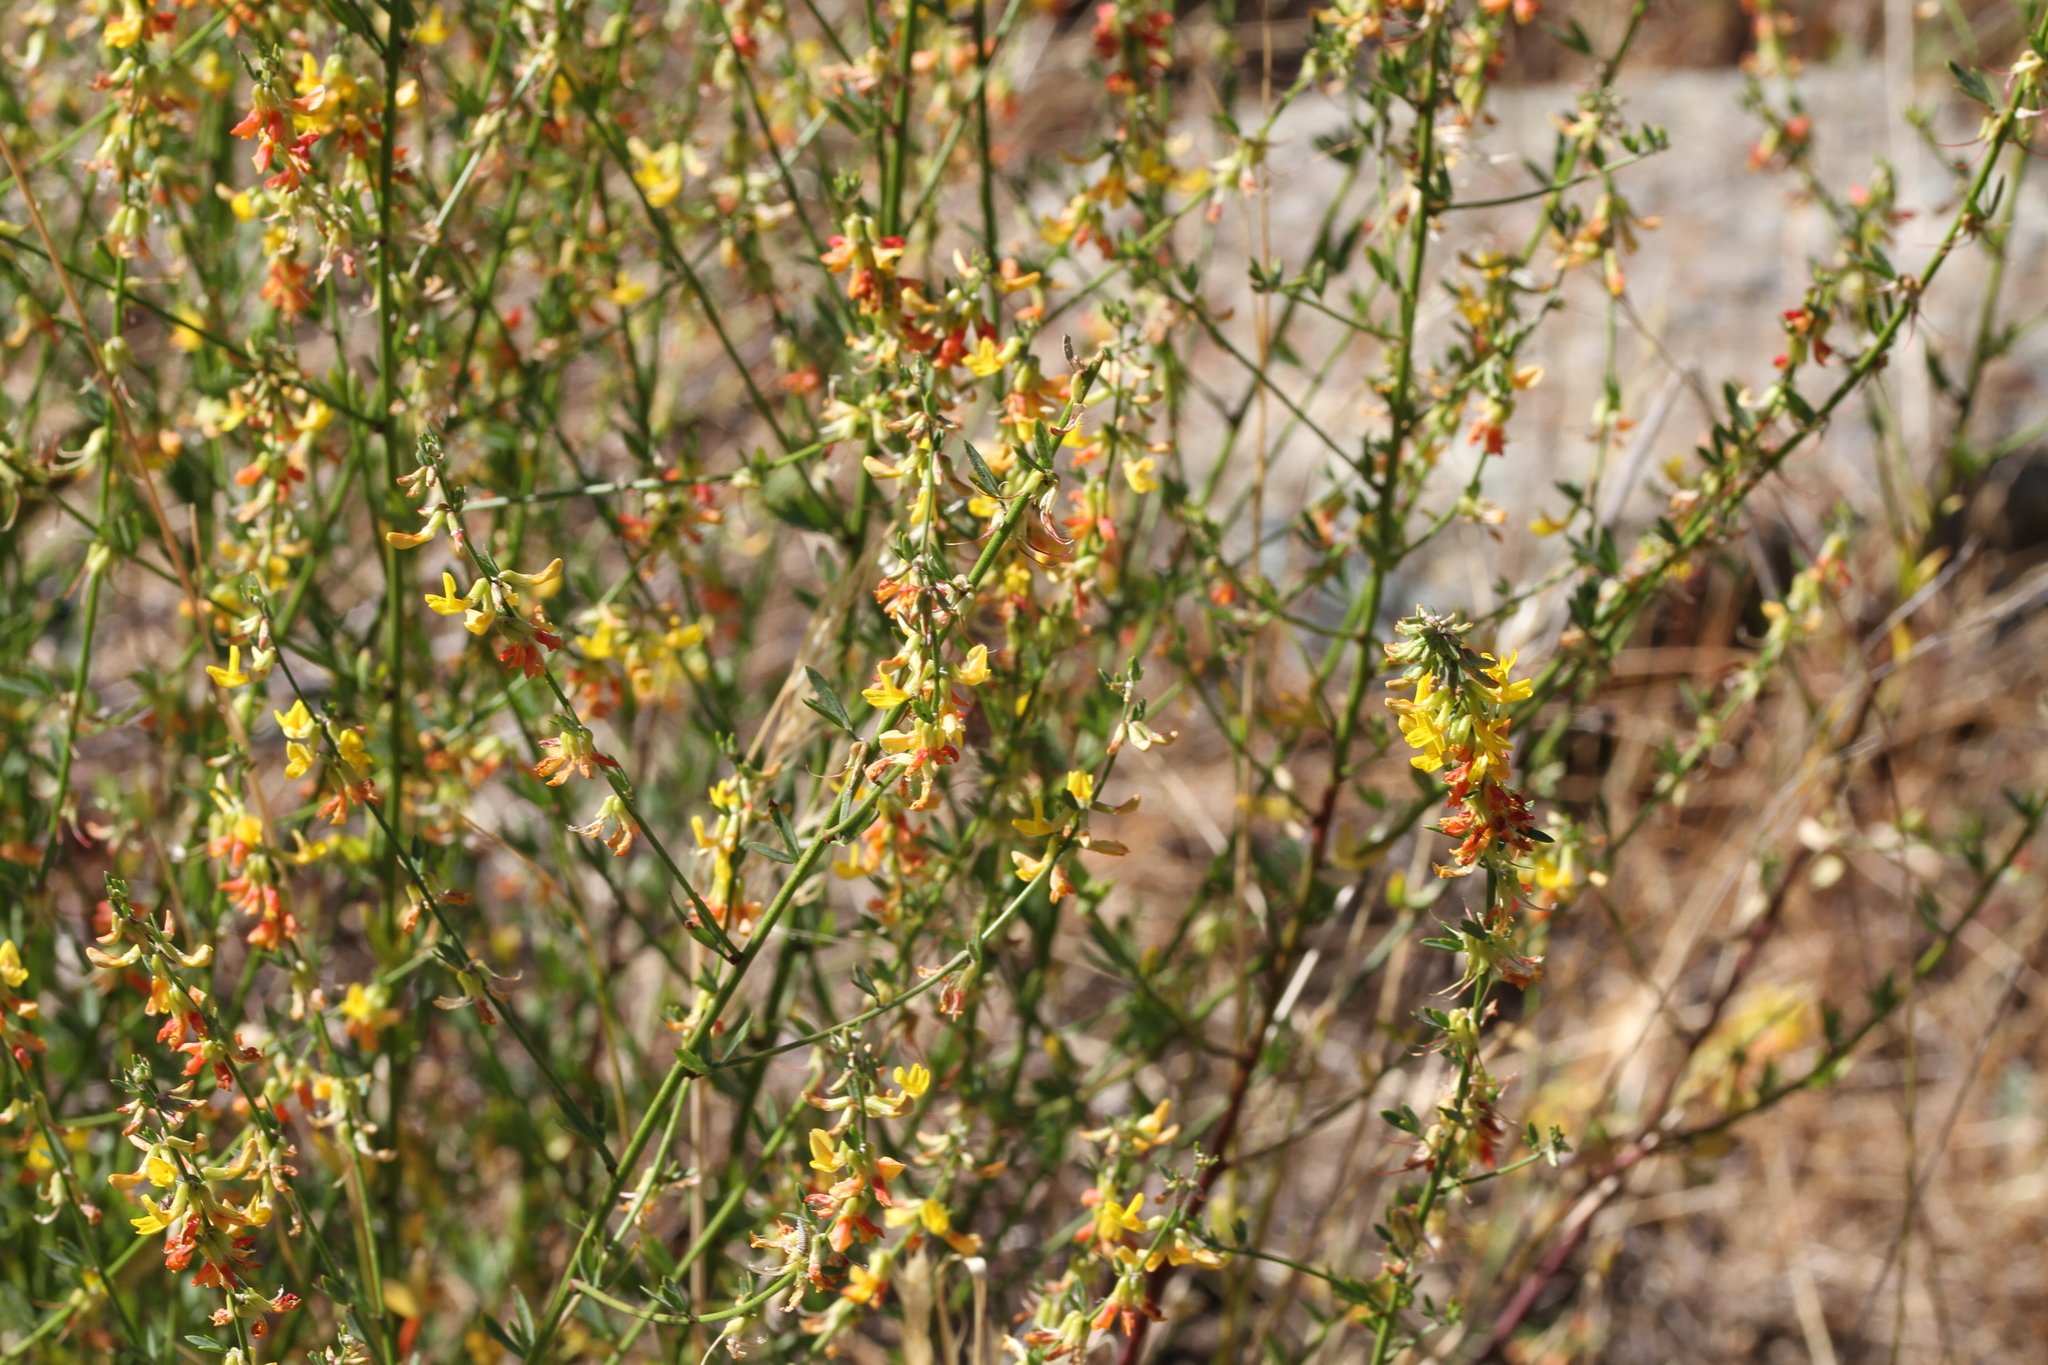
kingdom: Plantae
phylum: Tracheophyta
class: Magnoliopsida
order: Fabales
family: Fabaceae
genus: Acmispon
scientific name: Acmispon glaber
